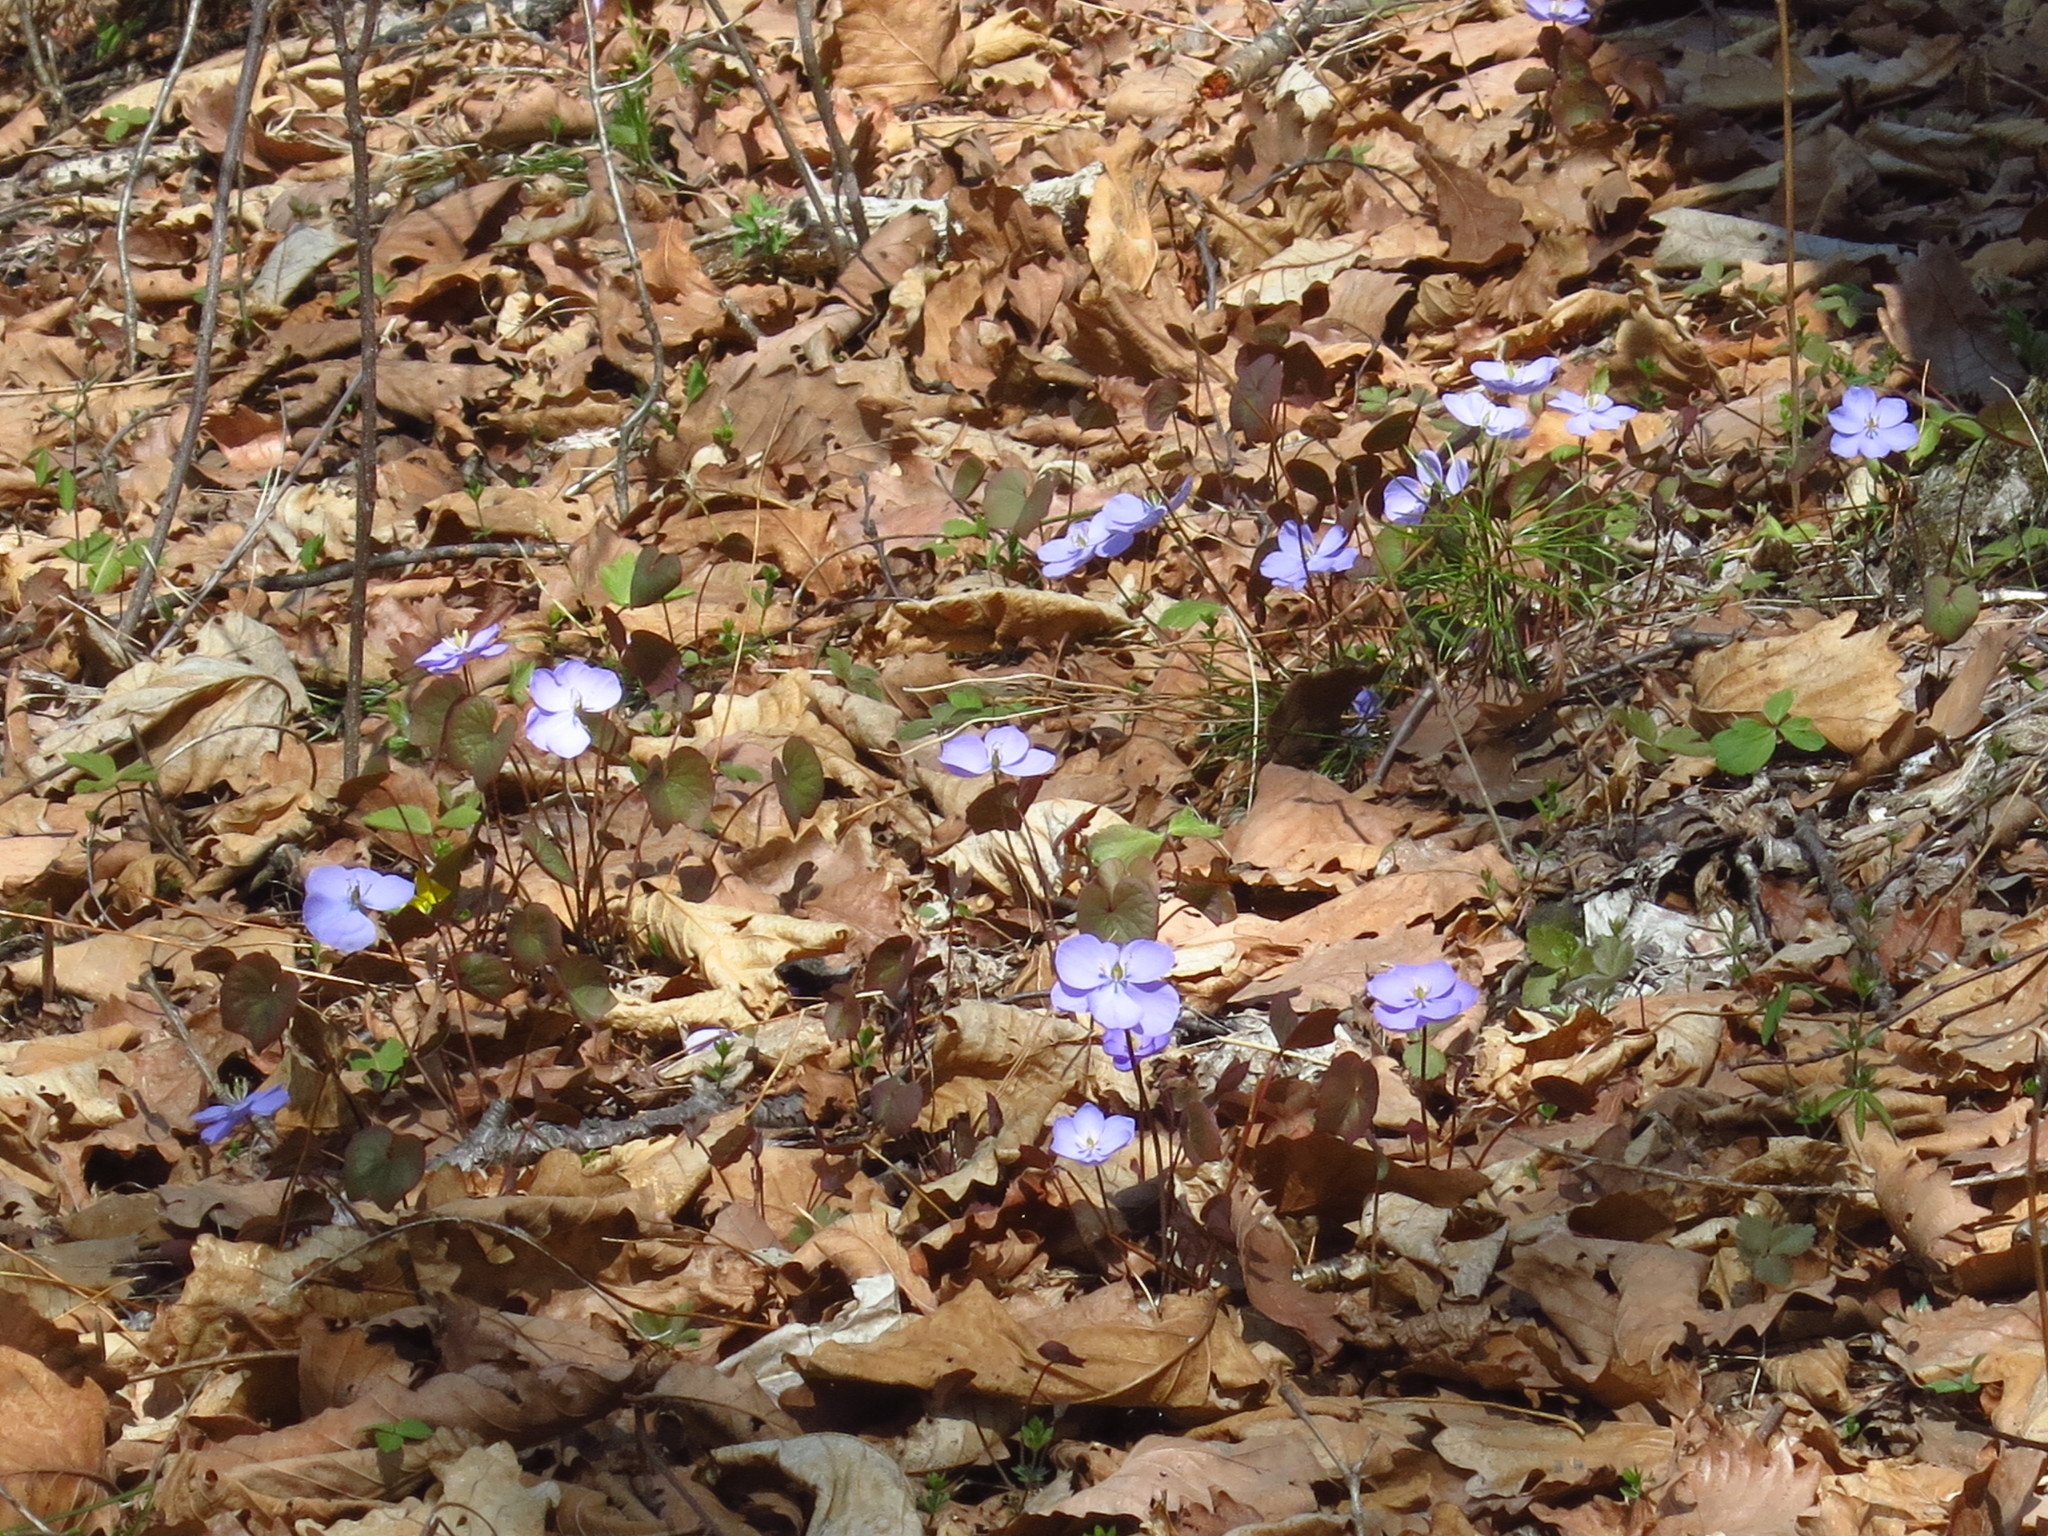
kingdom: Plantae
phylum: Tracheophyta
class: Magnoliopsida
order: Ranunculales
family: Berberidaceae
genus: Plagiorhegma
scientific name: Plagiorhegma dubium
